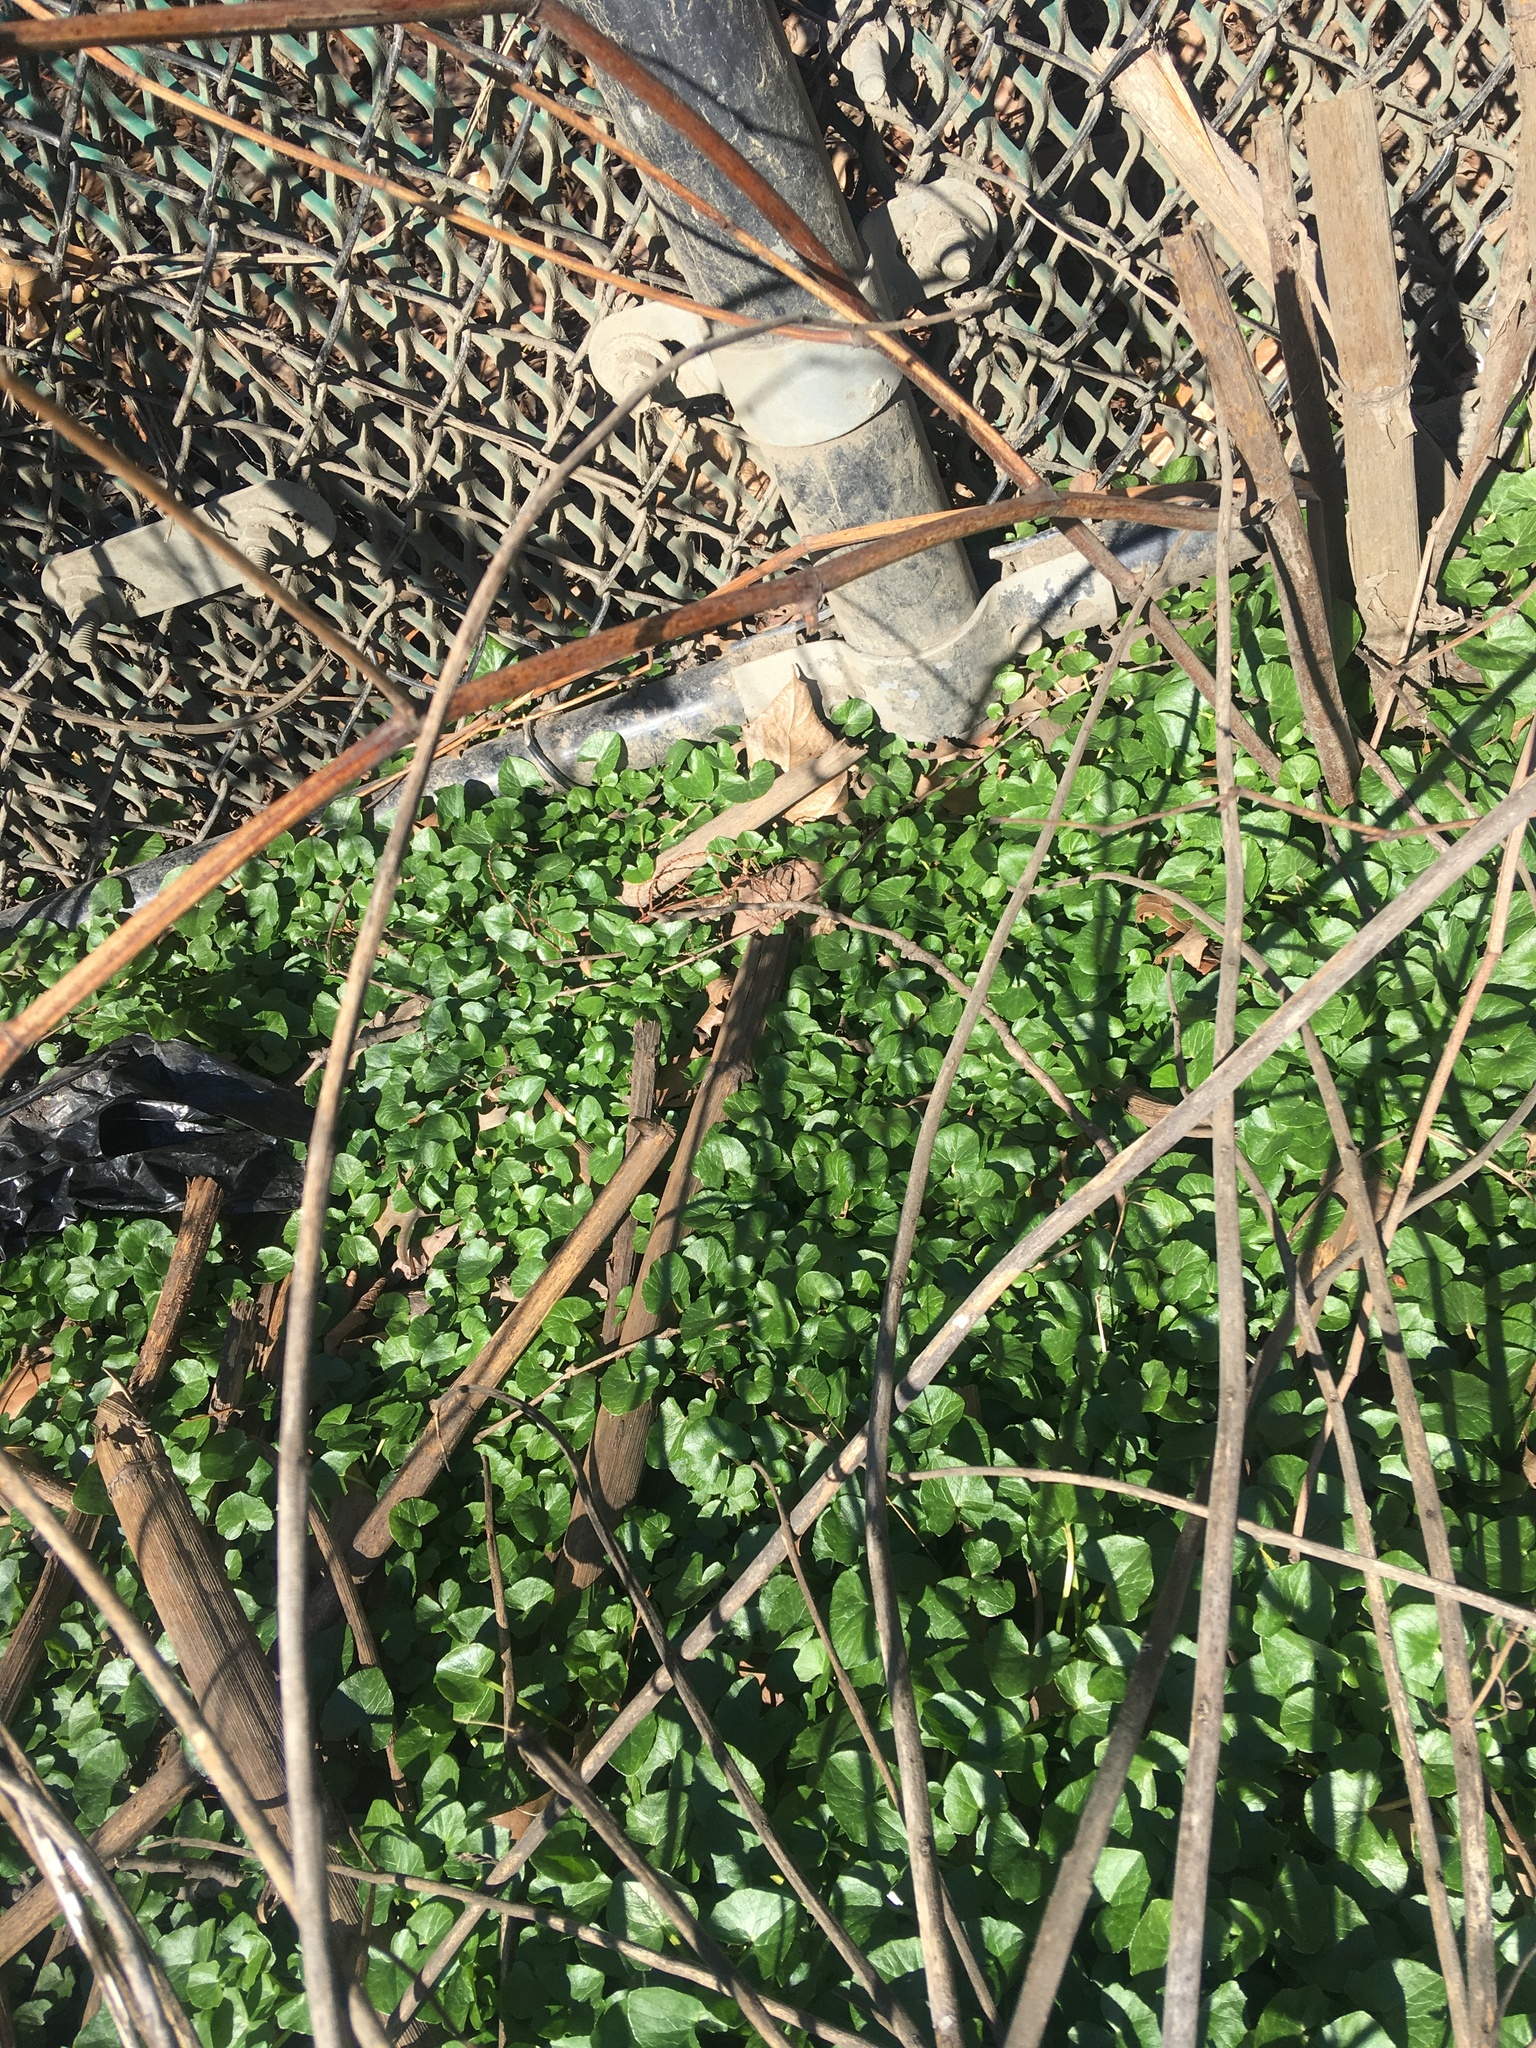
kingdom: Plantae
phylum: Tracheophyta
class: Magnoliopsida
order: Ranunculales
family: Ranunculaceae
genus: Ficaria
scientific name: Ficaria verna
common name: Lesser celandine
